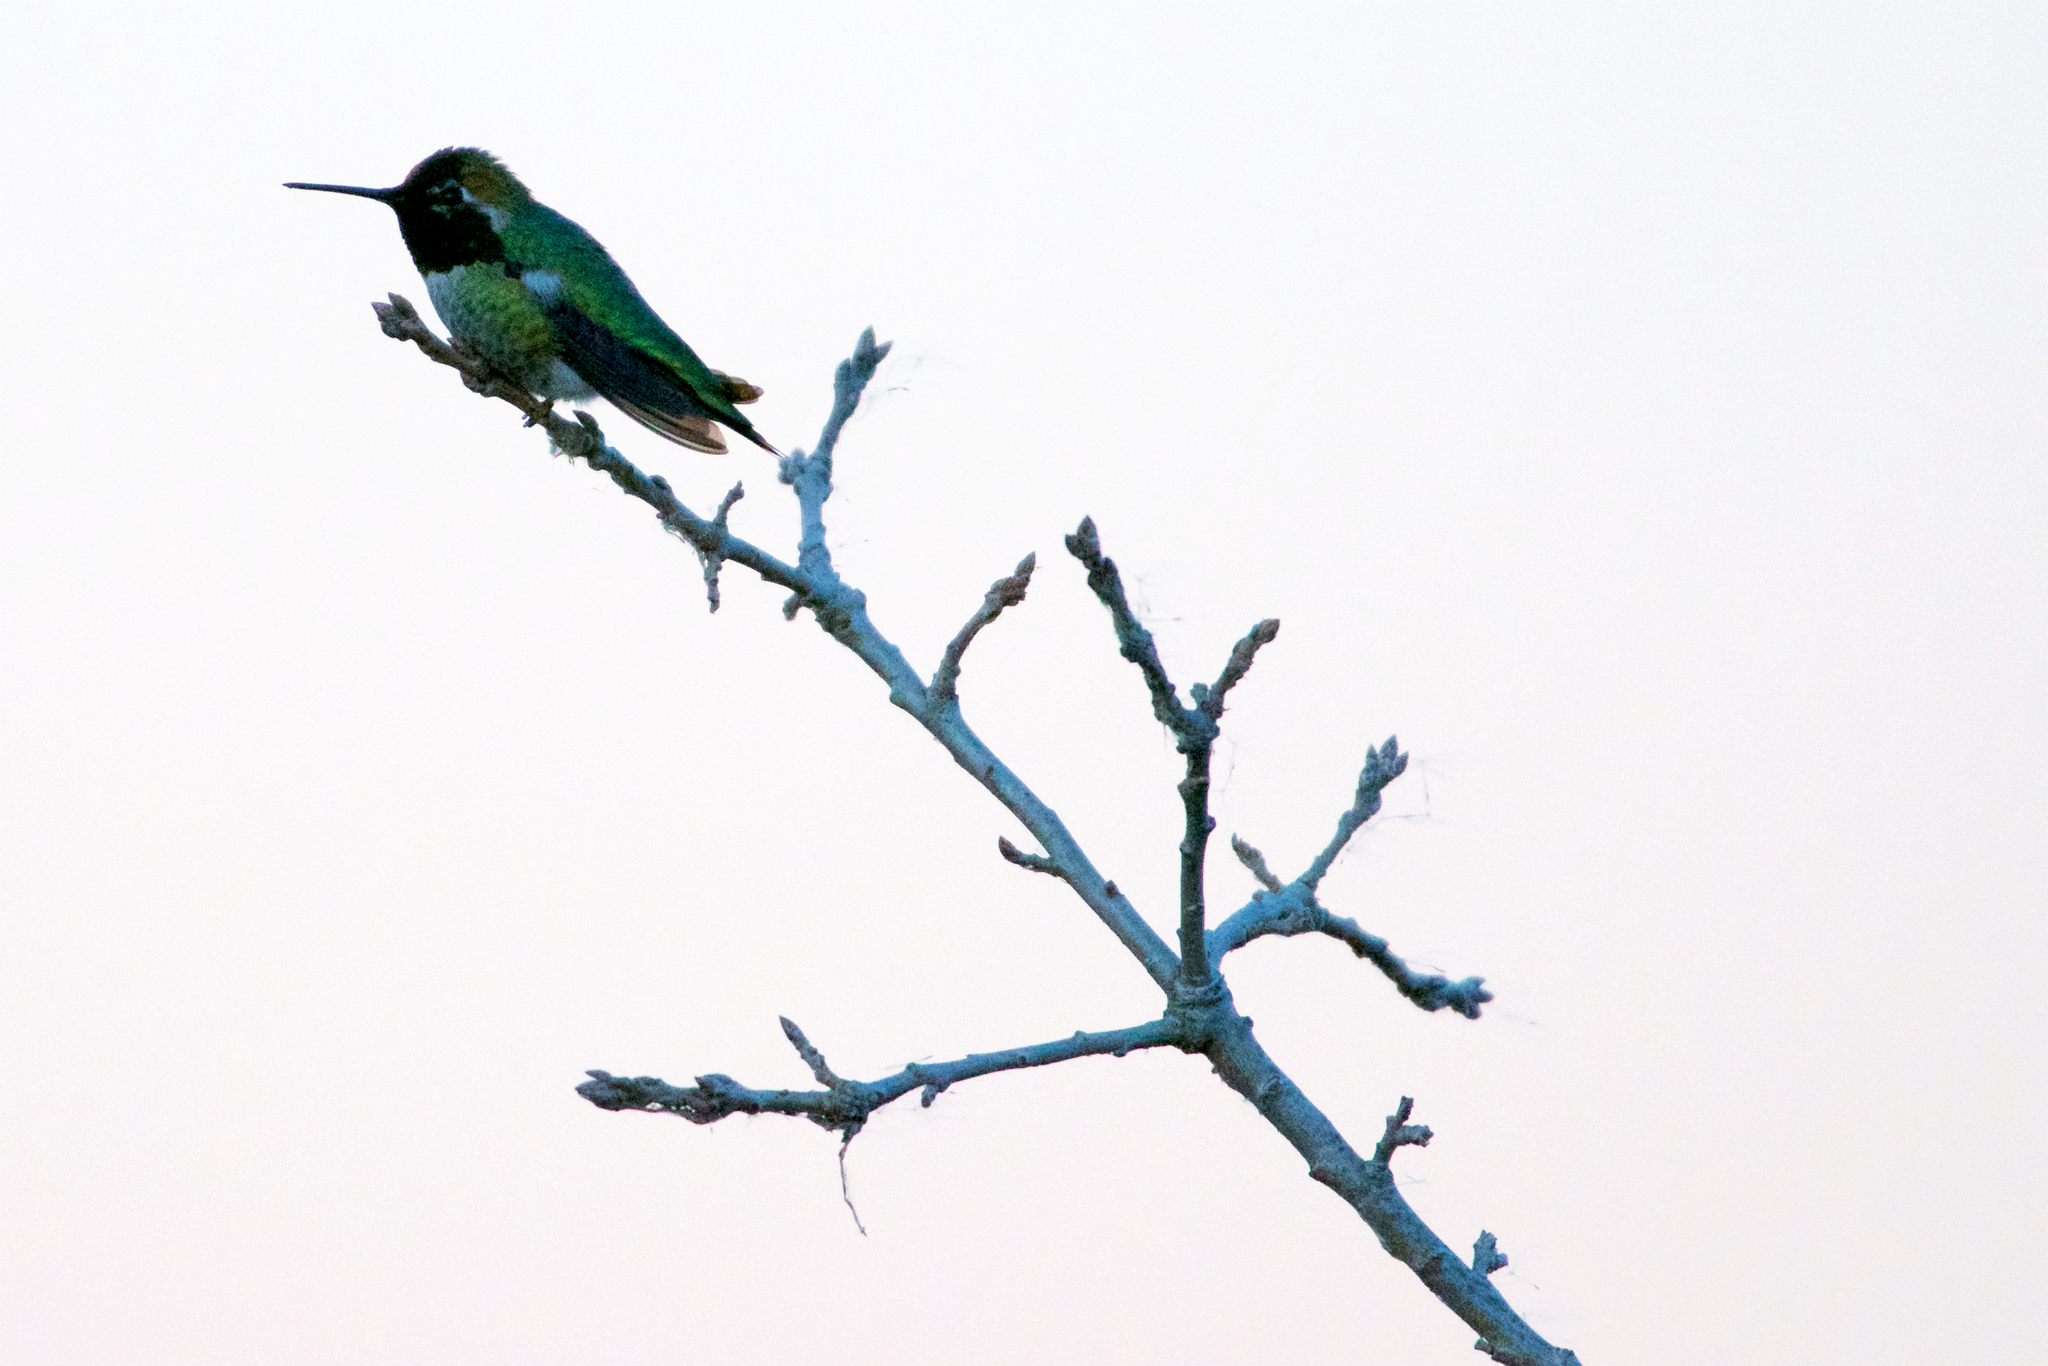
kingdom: Animalia
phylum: Chordata
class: Aves
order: Apodiformes
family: Trochilidae
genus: Calypte
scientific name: Calypte anna
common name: Anna's hummingbird
